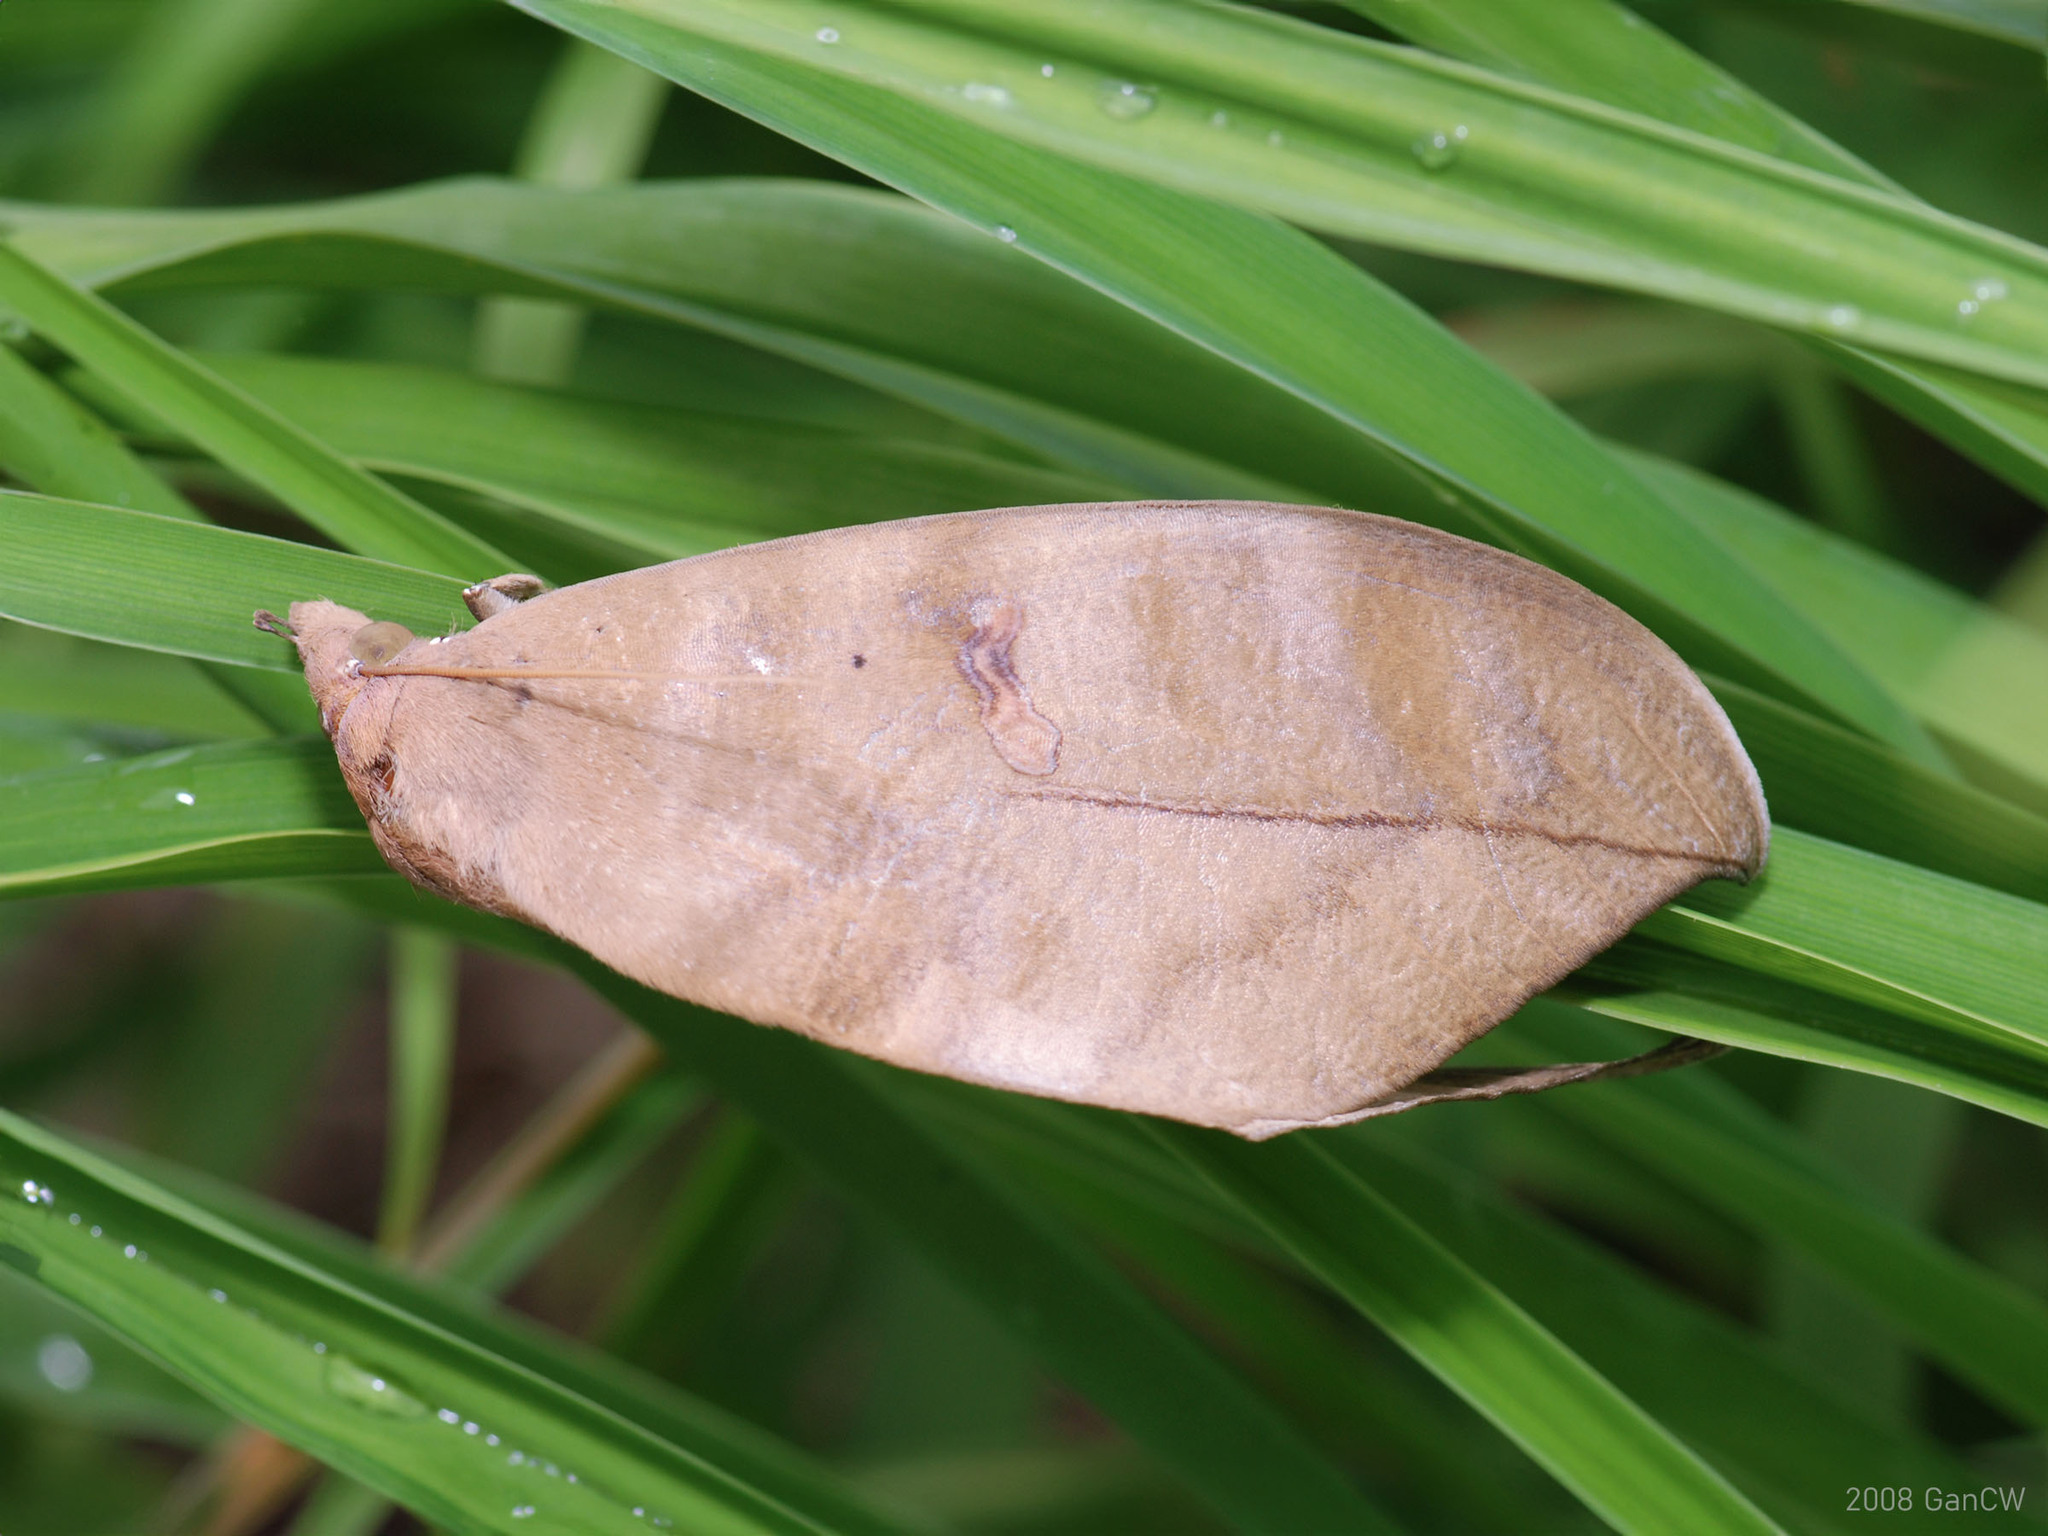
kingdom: Animalia
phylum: Arthropoda
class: Insecta
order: Lepidoptera
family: Erebidae
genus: Phyllodes
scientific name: Phyllodes eyndhovii
